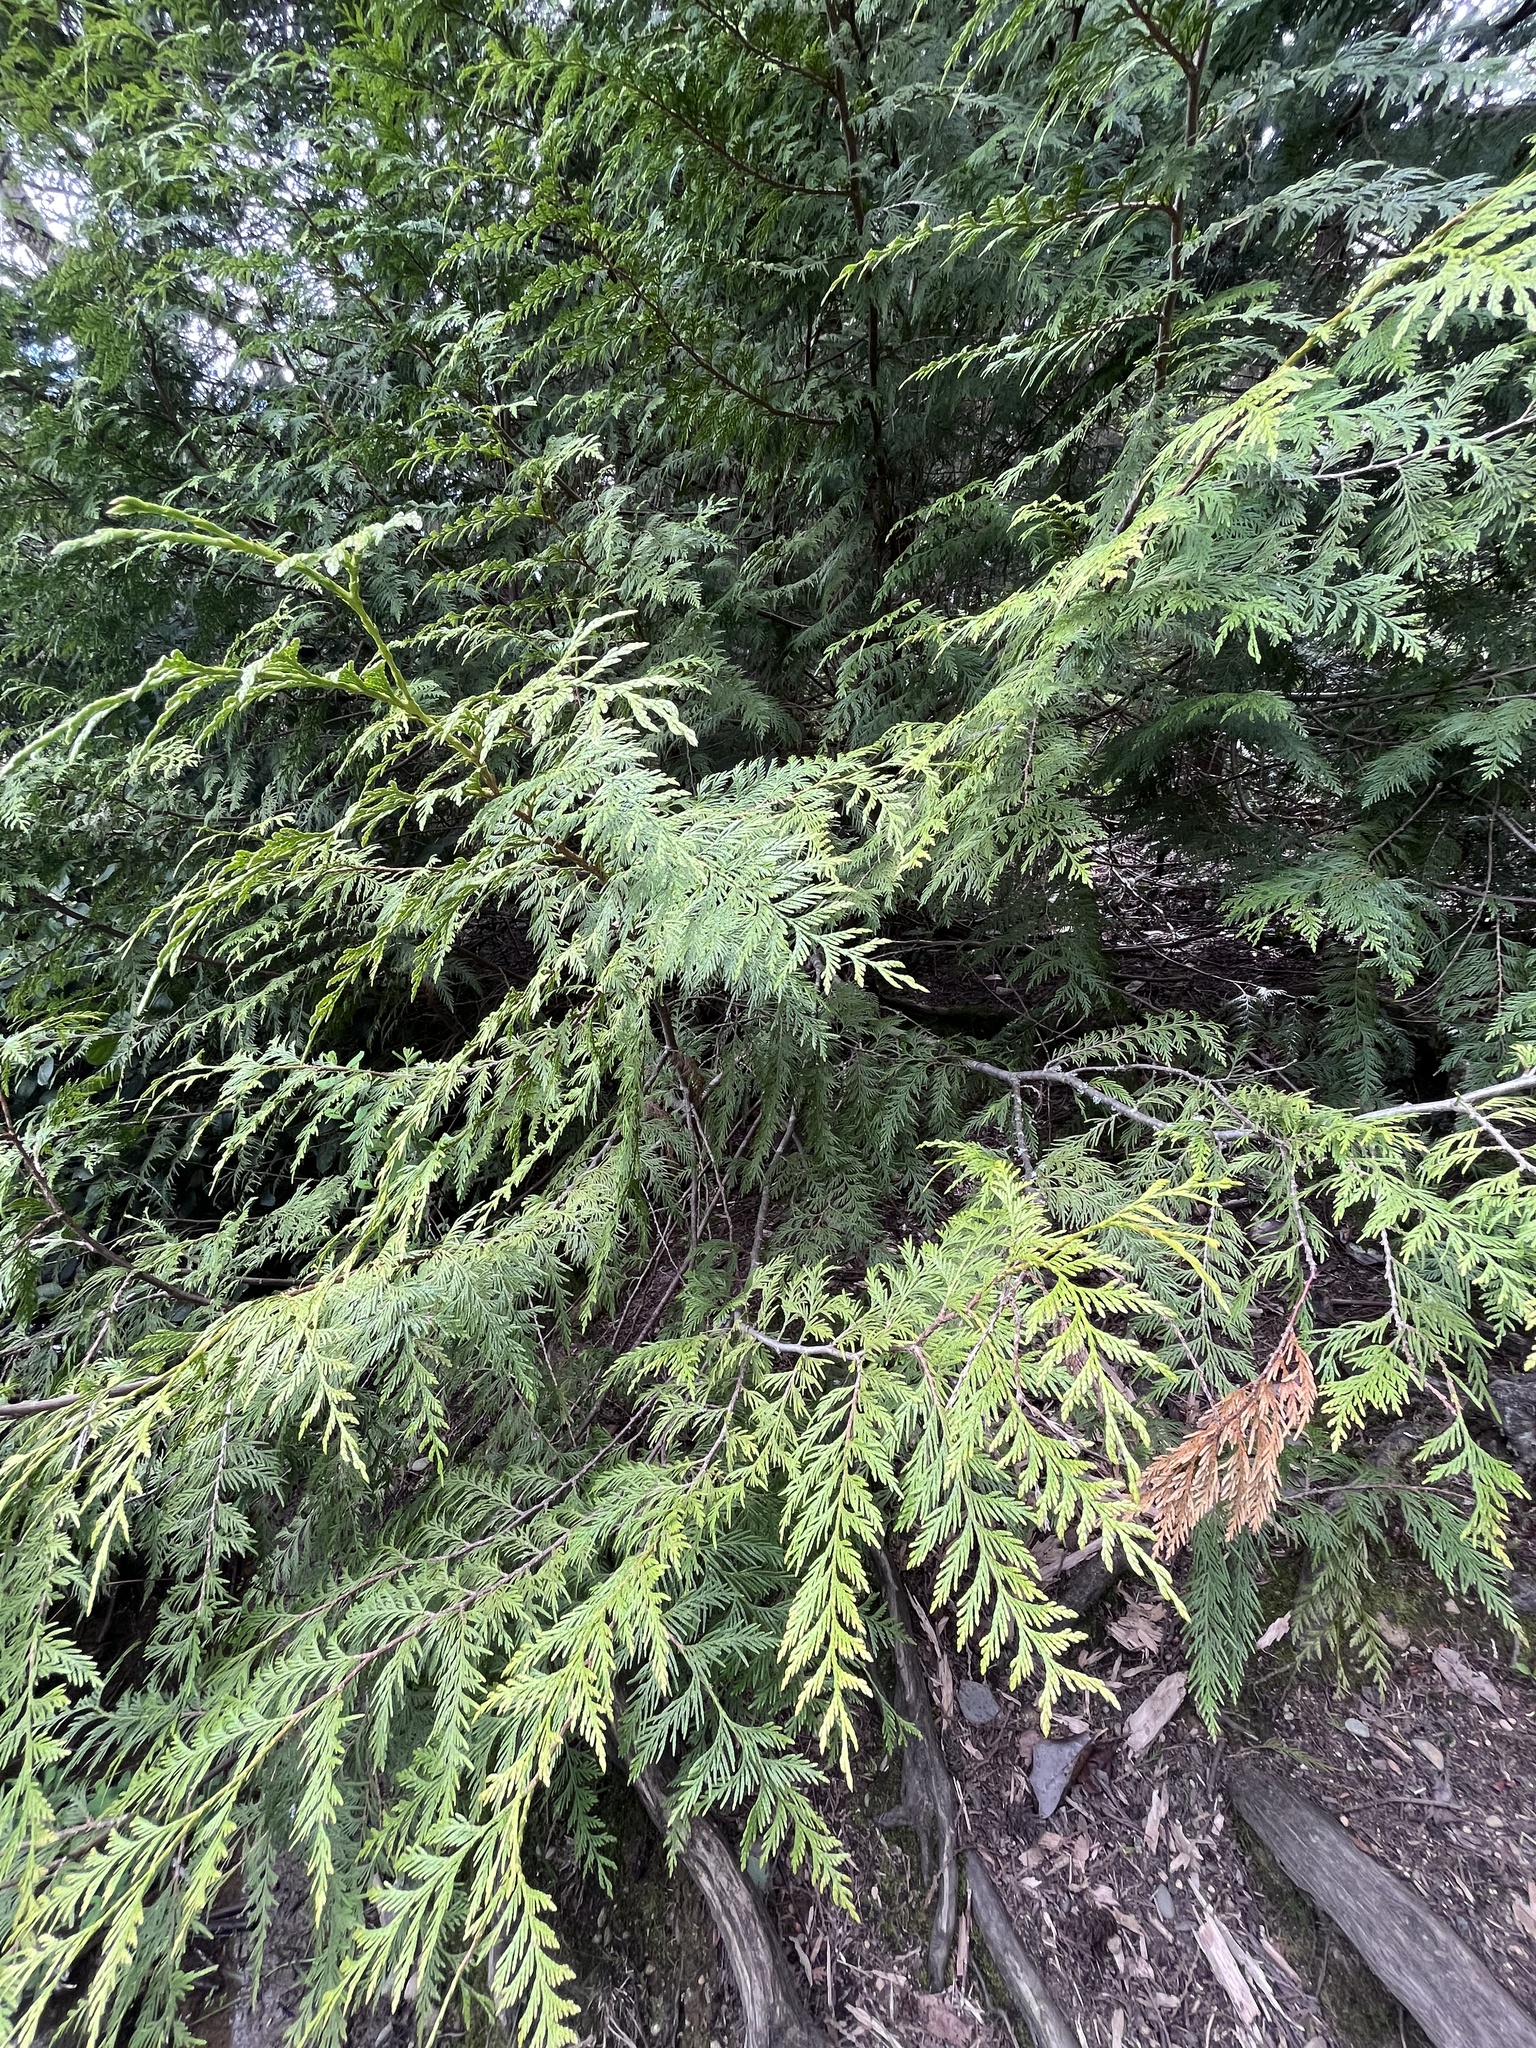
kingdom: Plantae
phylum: Tracheophyta
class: Pinopsida
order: Pinales
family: Cupressaceae
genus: Thuja
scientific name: Thuja plicata
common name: Western red-cedar
